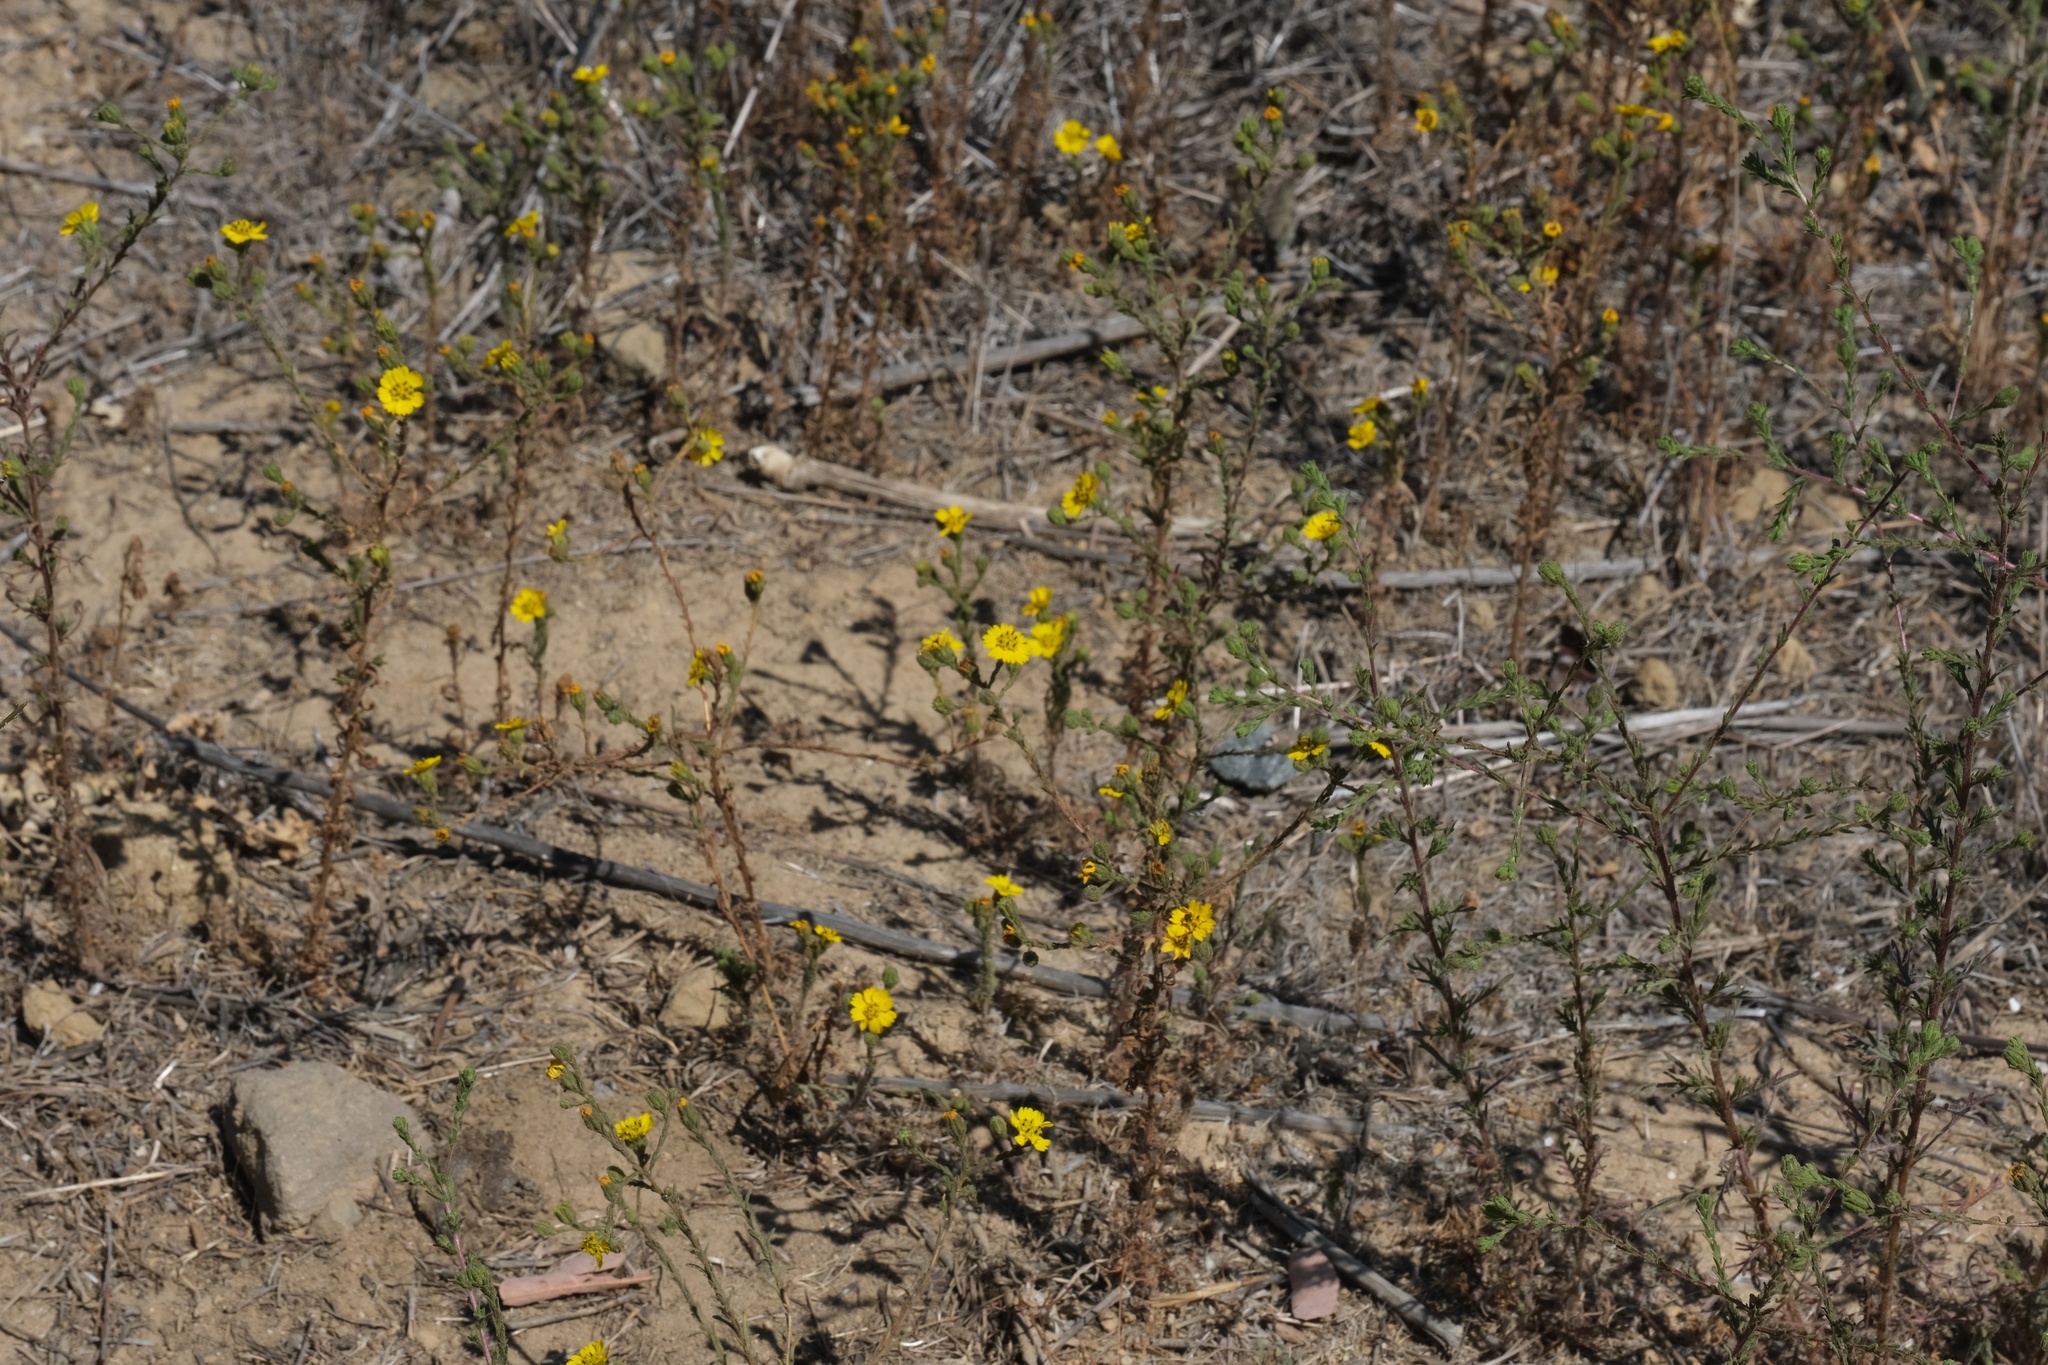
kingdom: Plantae
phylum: Tracheophyta
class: Magnoliopsida
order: Asterales
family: Asteraceae
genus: Deinandra
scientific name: Deinandra paniculata
